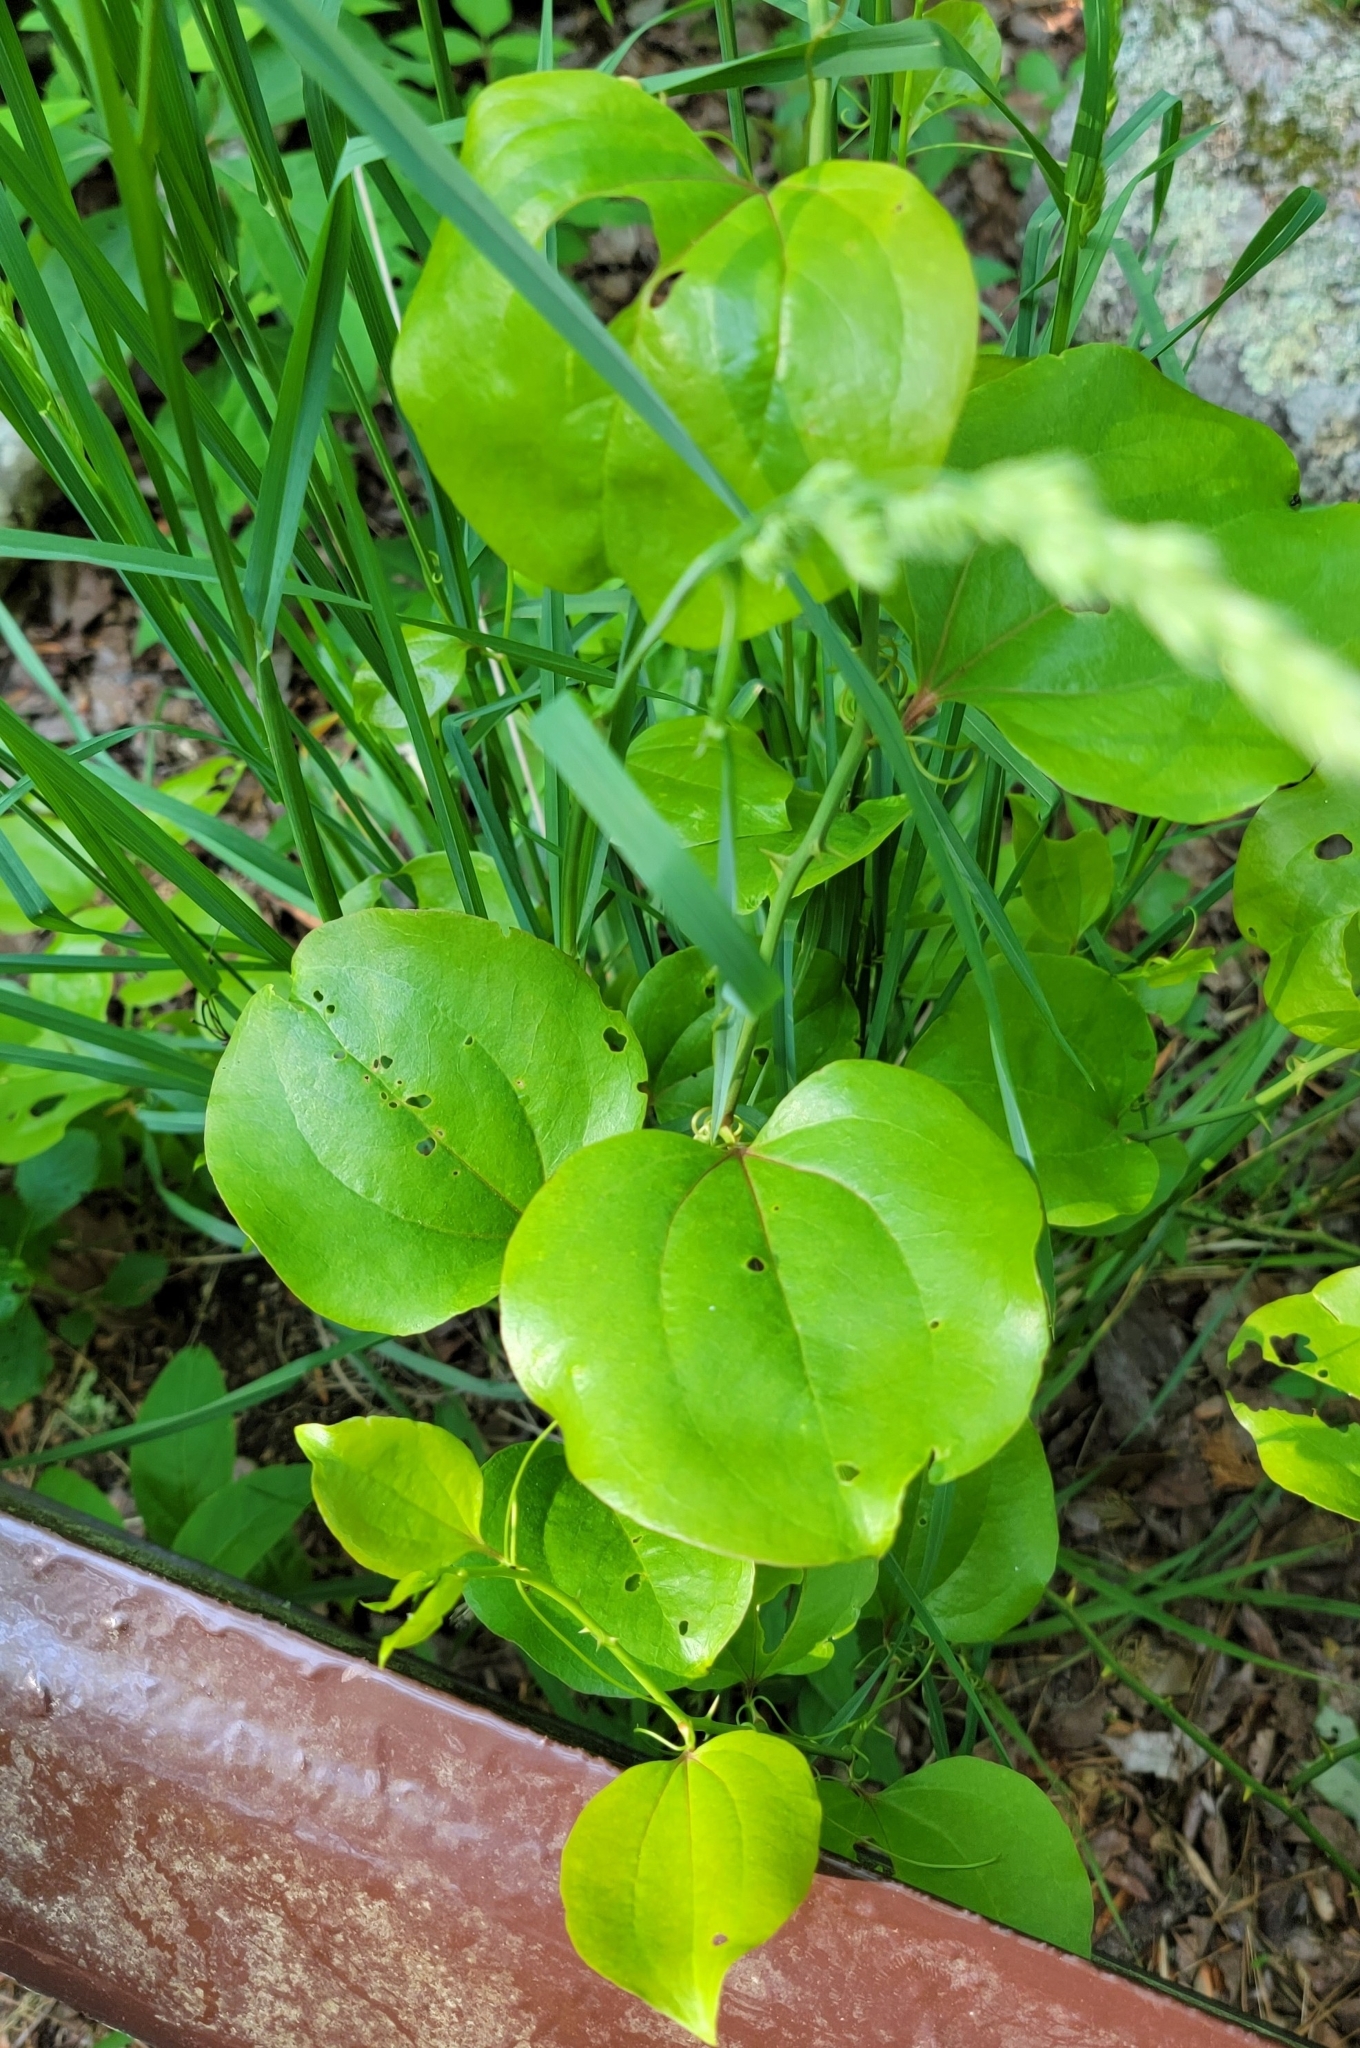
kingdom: Plantae
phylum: Tracheophyta
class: Liliopsida
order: Liliales
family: Smilacaceae
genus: Smilax
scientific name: Smilax rotundifolia
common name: Bullbriar
